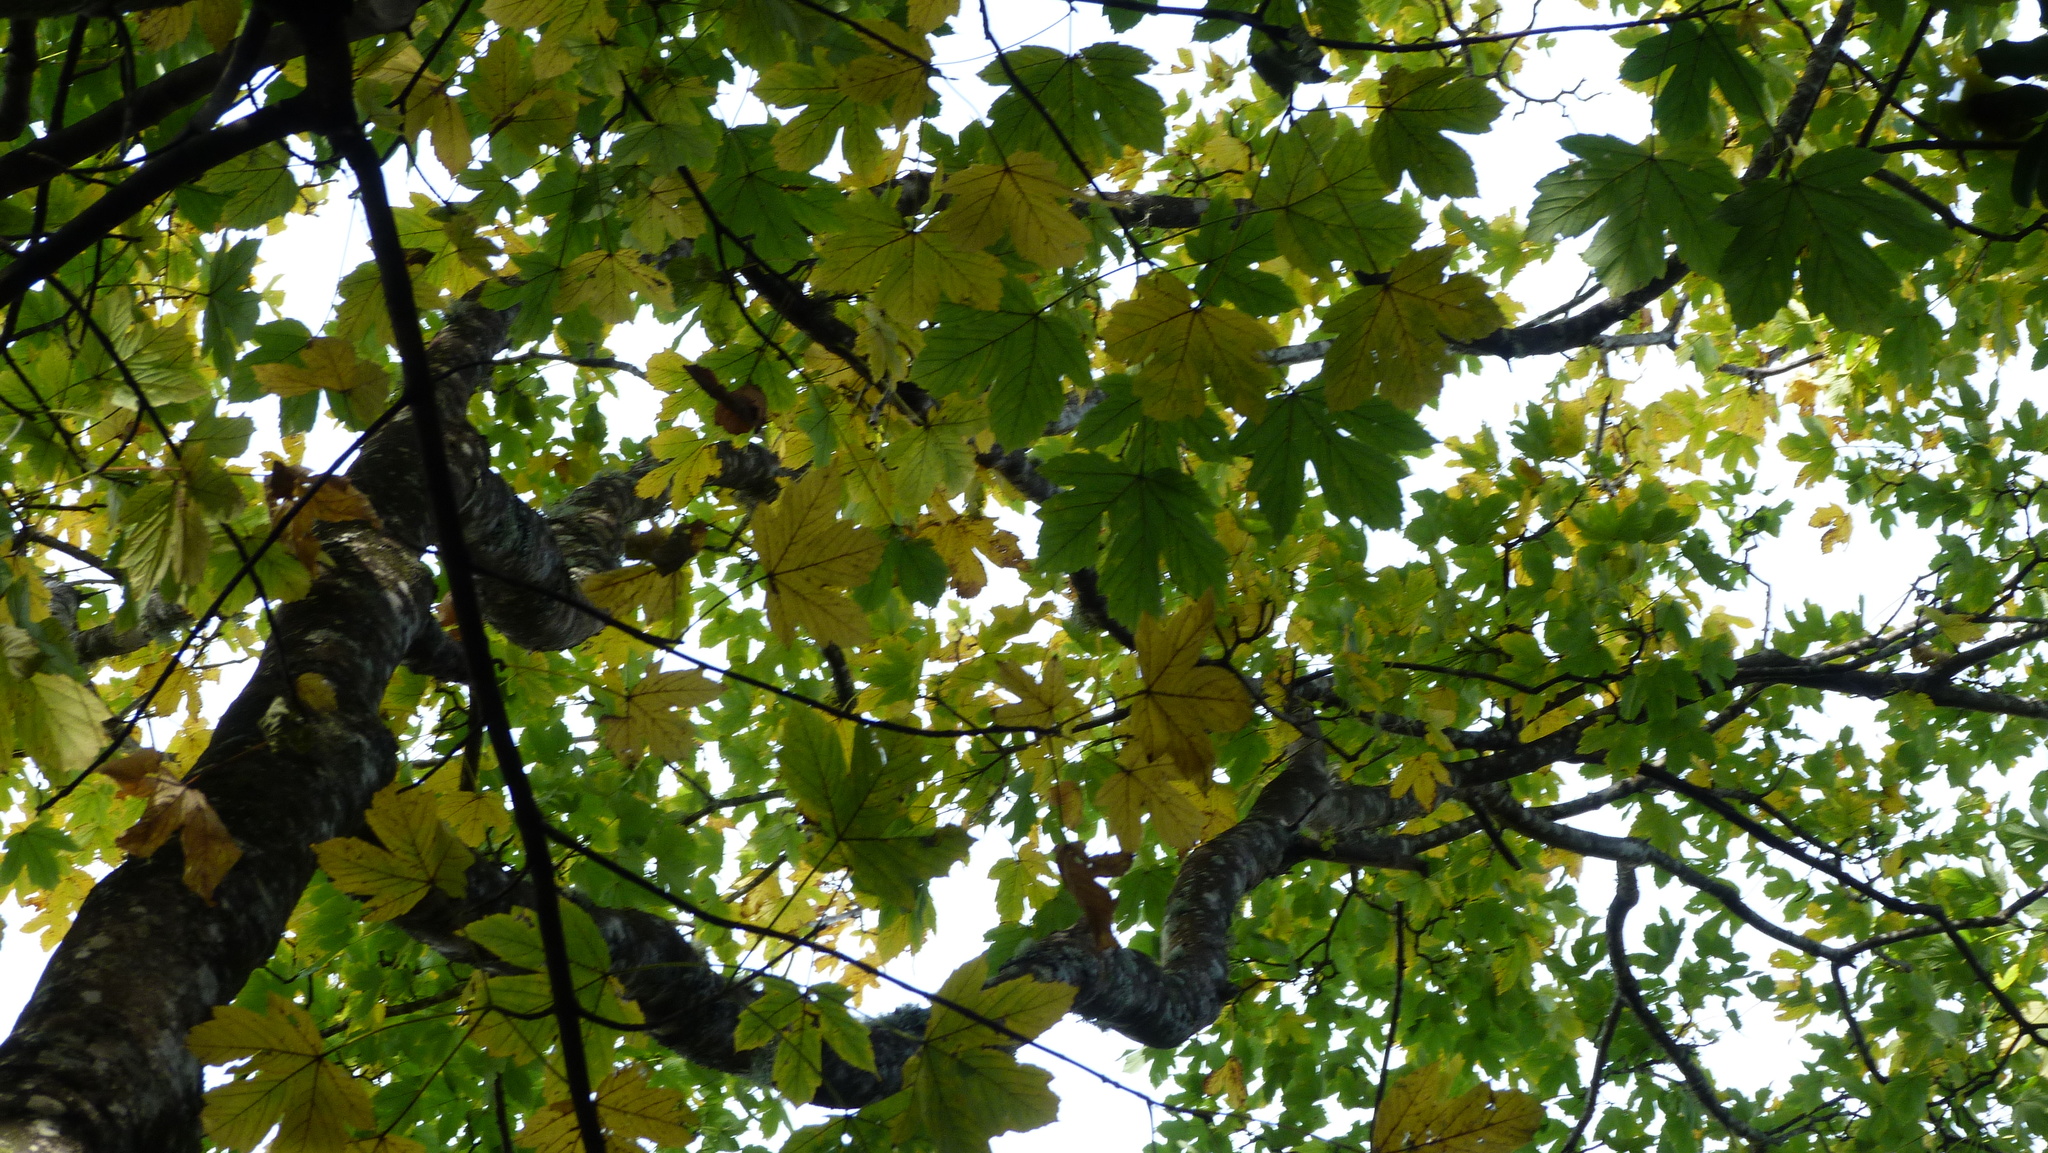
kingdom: Plantae
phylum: Tracheophyta
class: Magnoliopsida
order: Sapindales
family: Sapindaceae
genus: Acer
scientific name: Acer pseudoplatanus
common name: Sycamore
